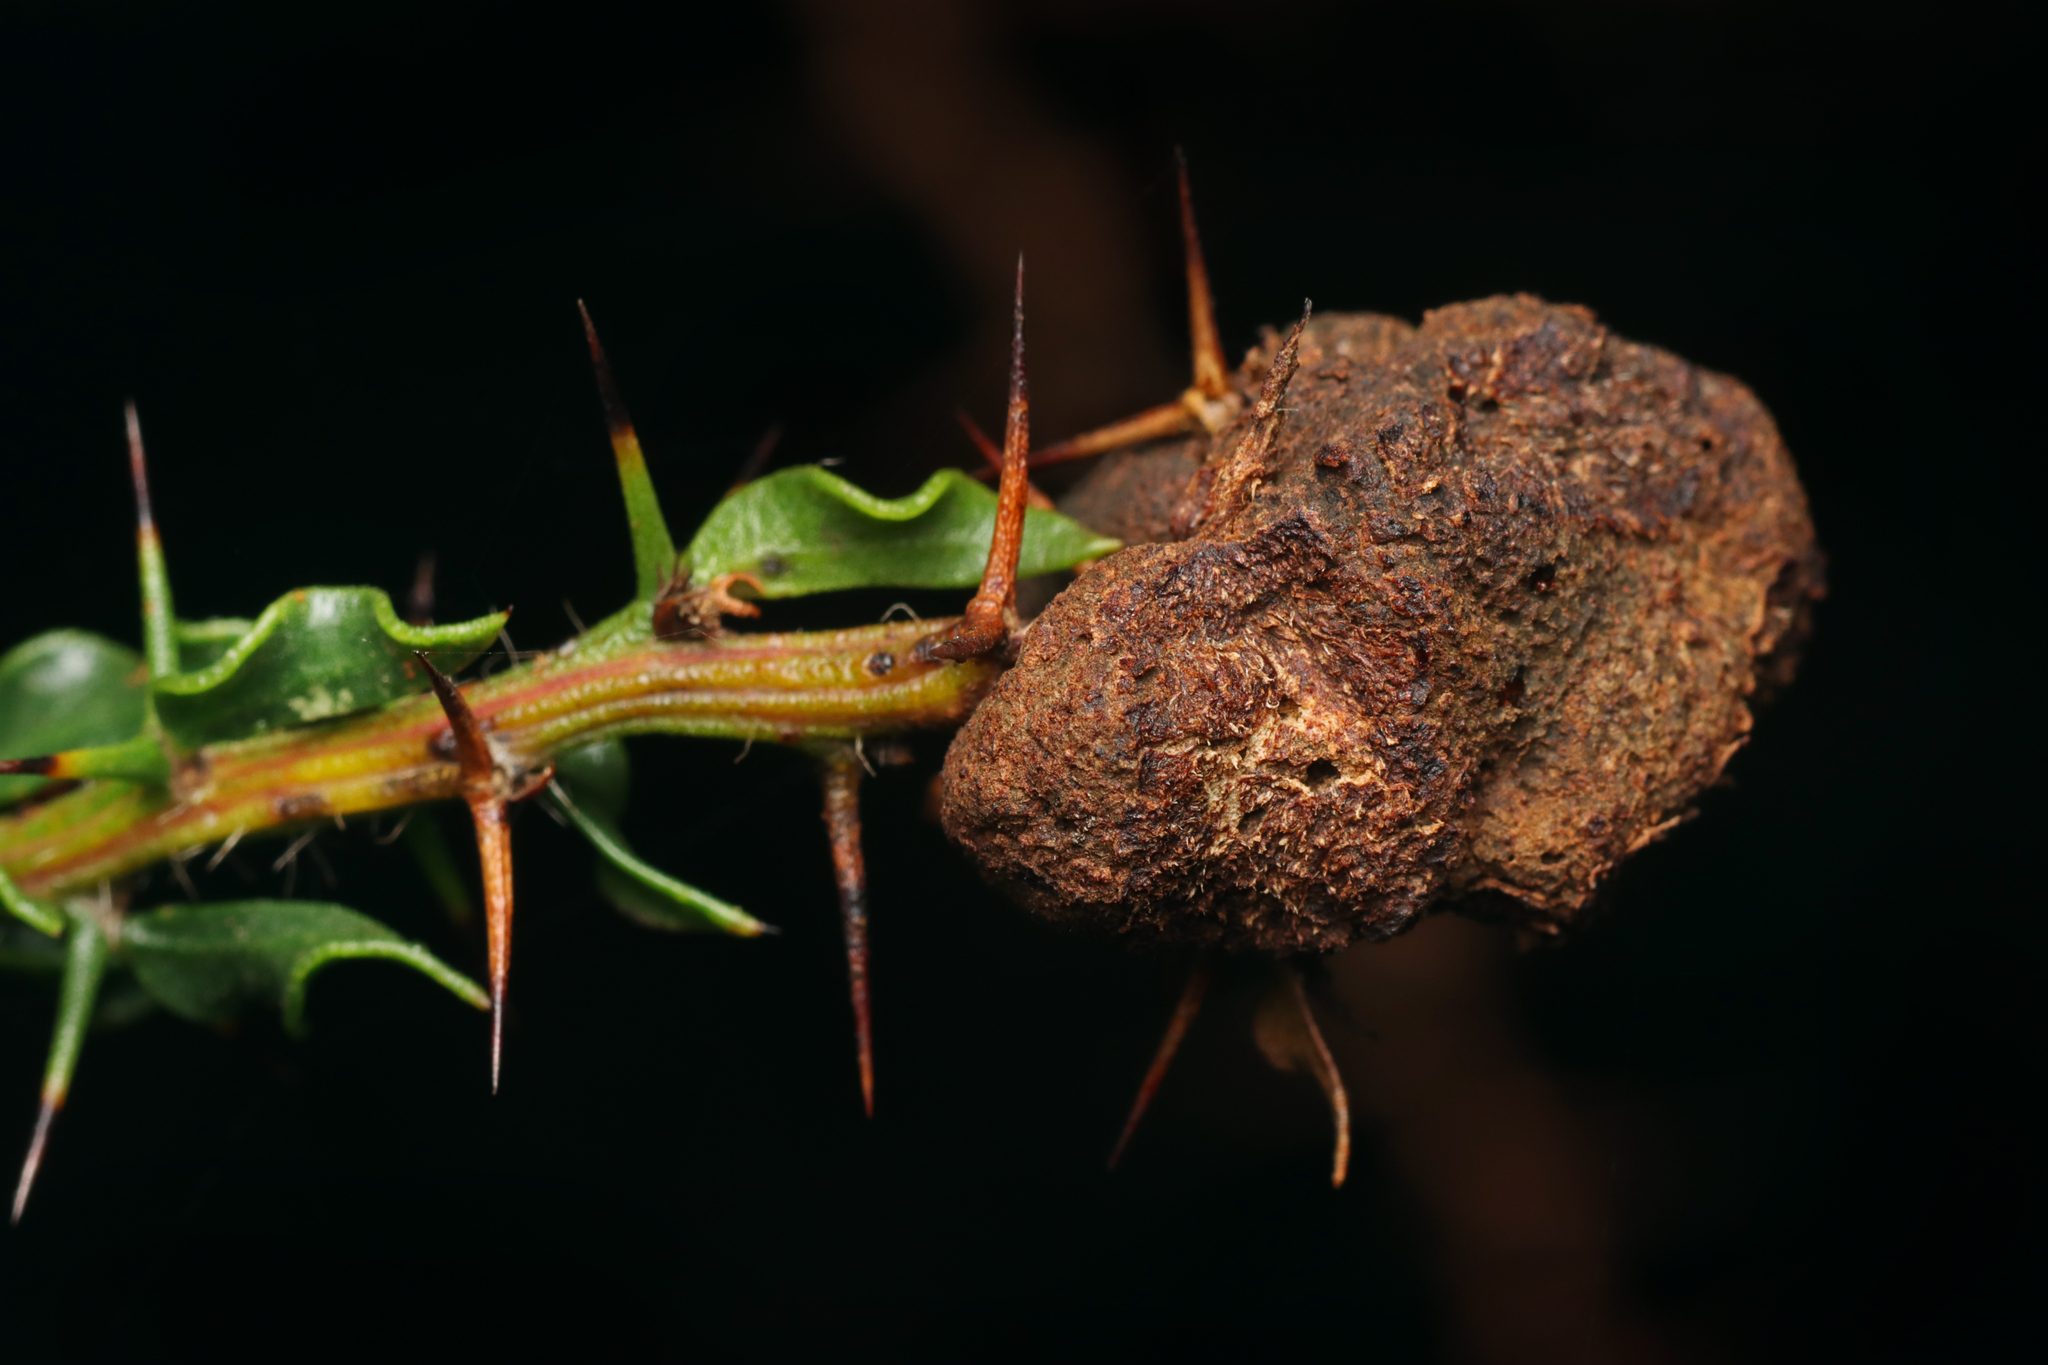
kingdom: Fungi
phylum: Basidiomycota
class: Pucciniomycetes
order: Pucciniales
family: Uromycladiaceae
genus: Uromycladium
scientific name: Uromycladium paradoxae
